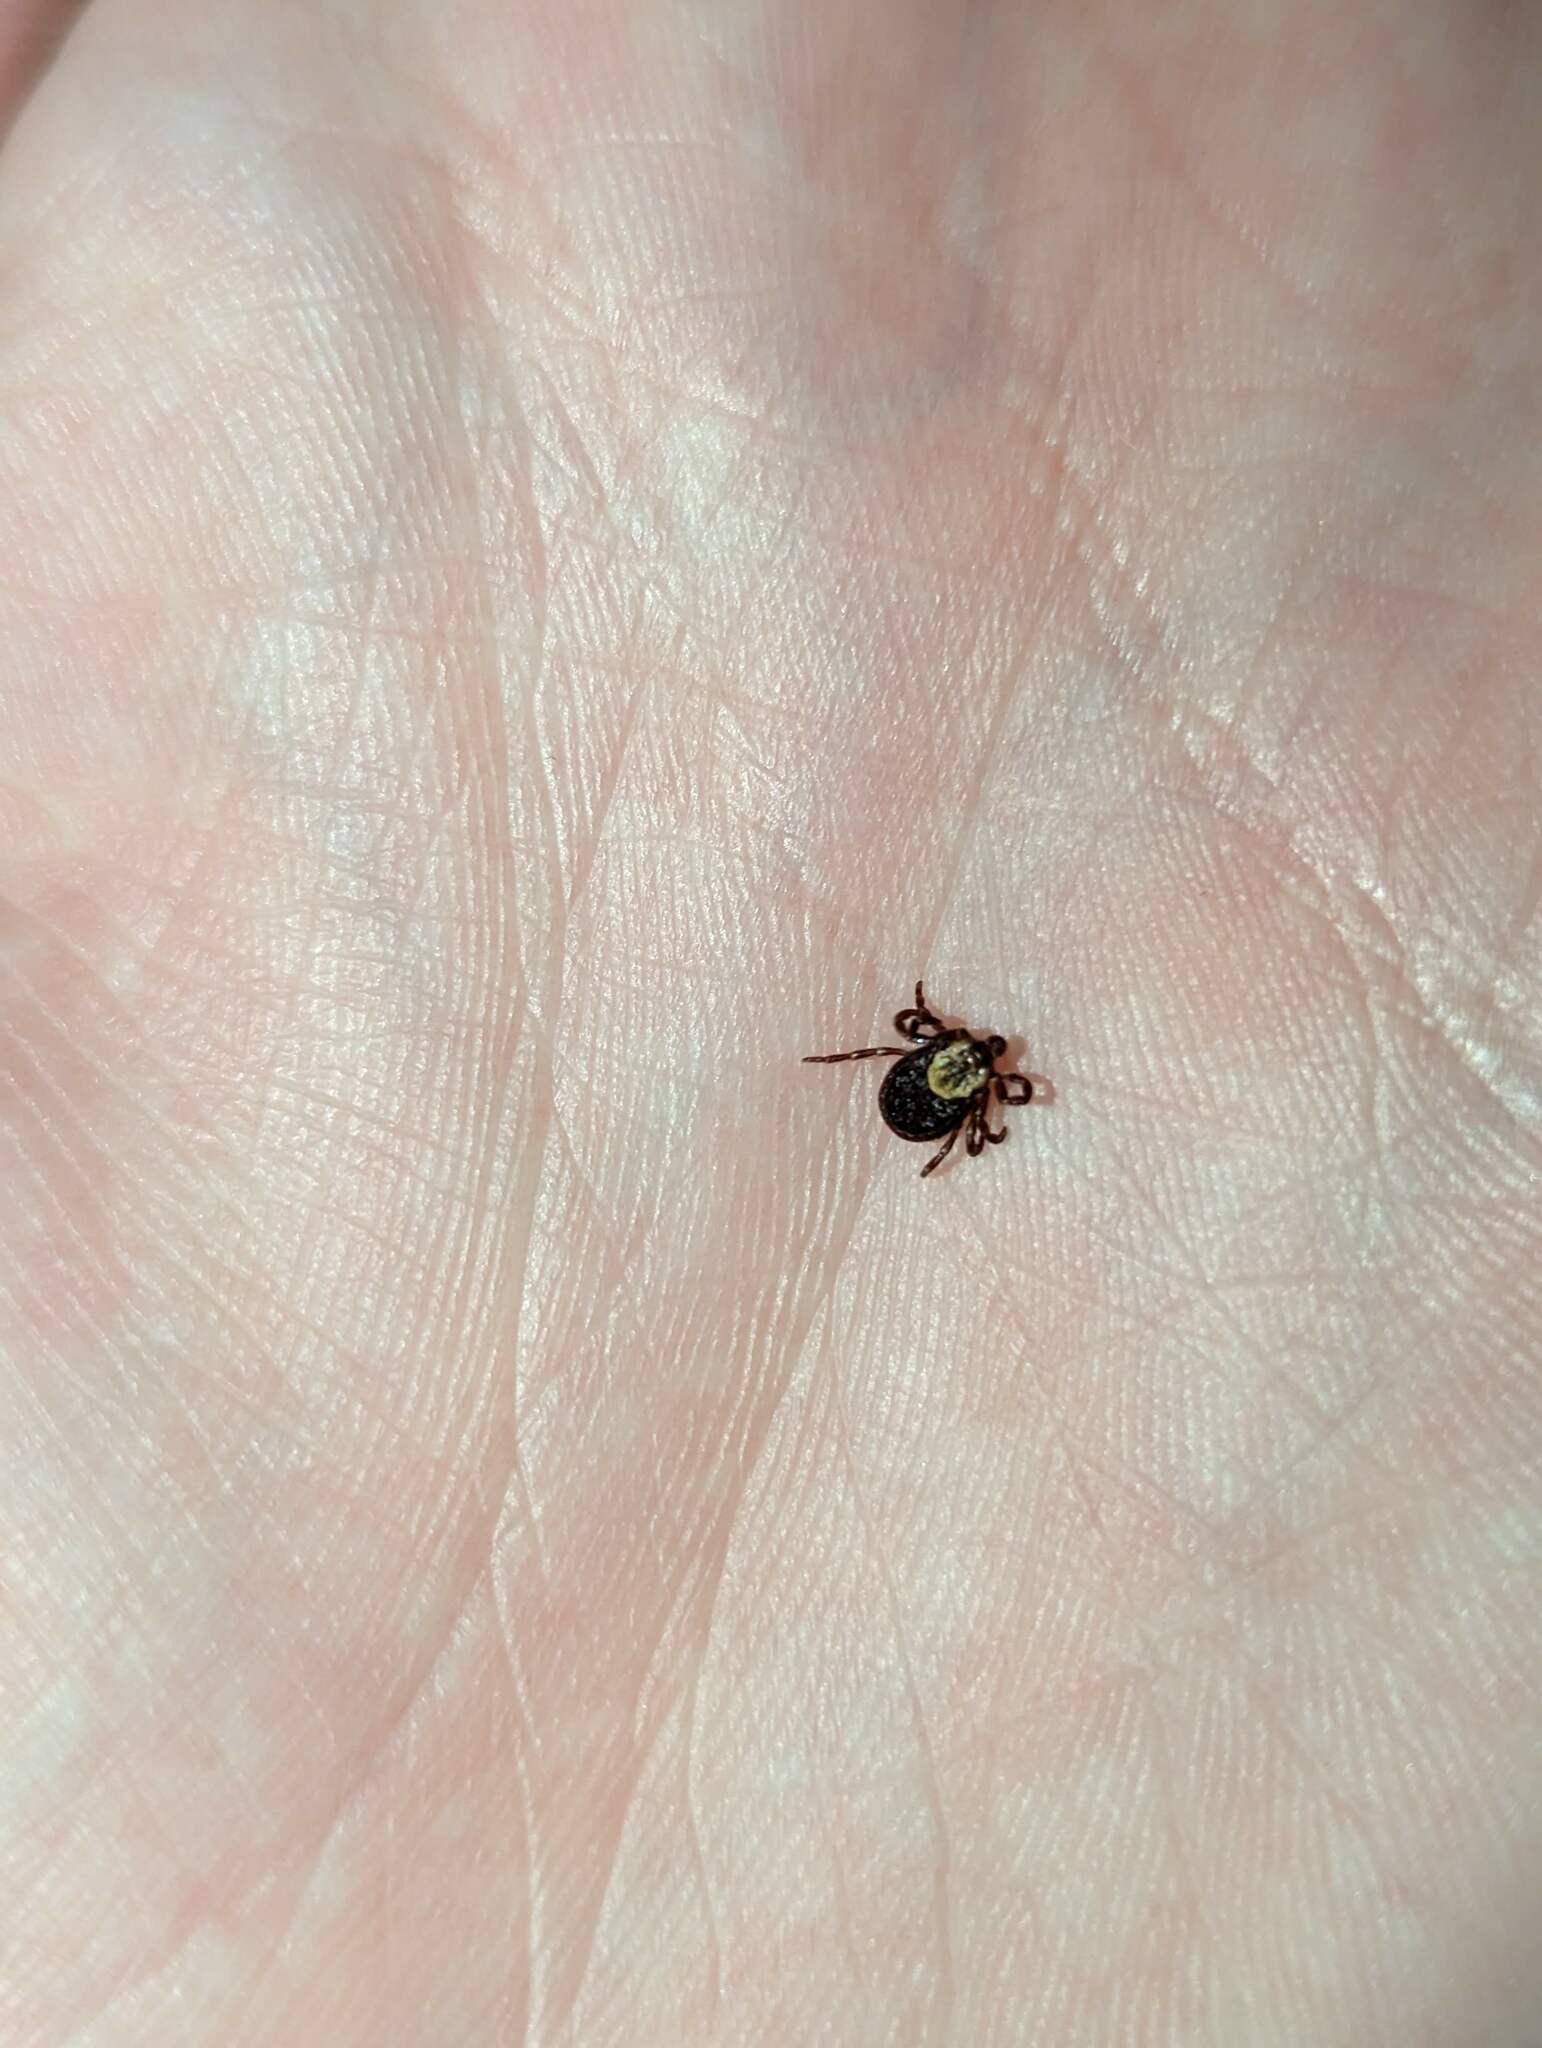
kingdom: Animalia
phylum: Arthropoda
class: Arachnida
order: Ixodida
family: Ixodidae
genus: Dermacentor
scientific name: Dermacentor variabilis
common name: American dog tick
